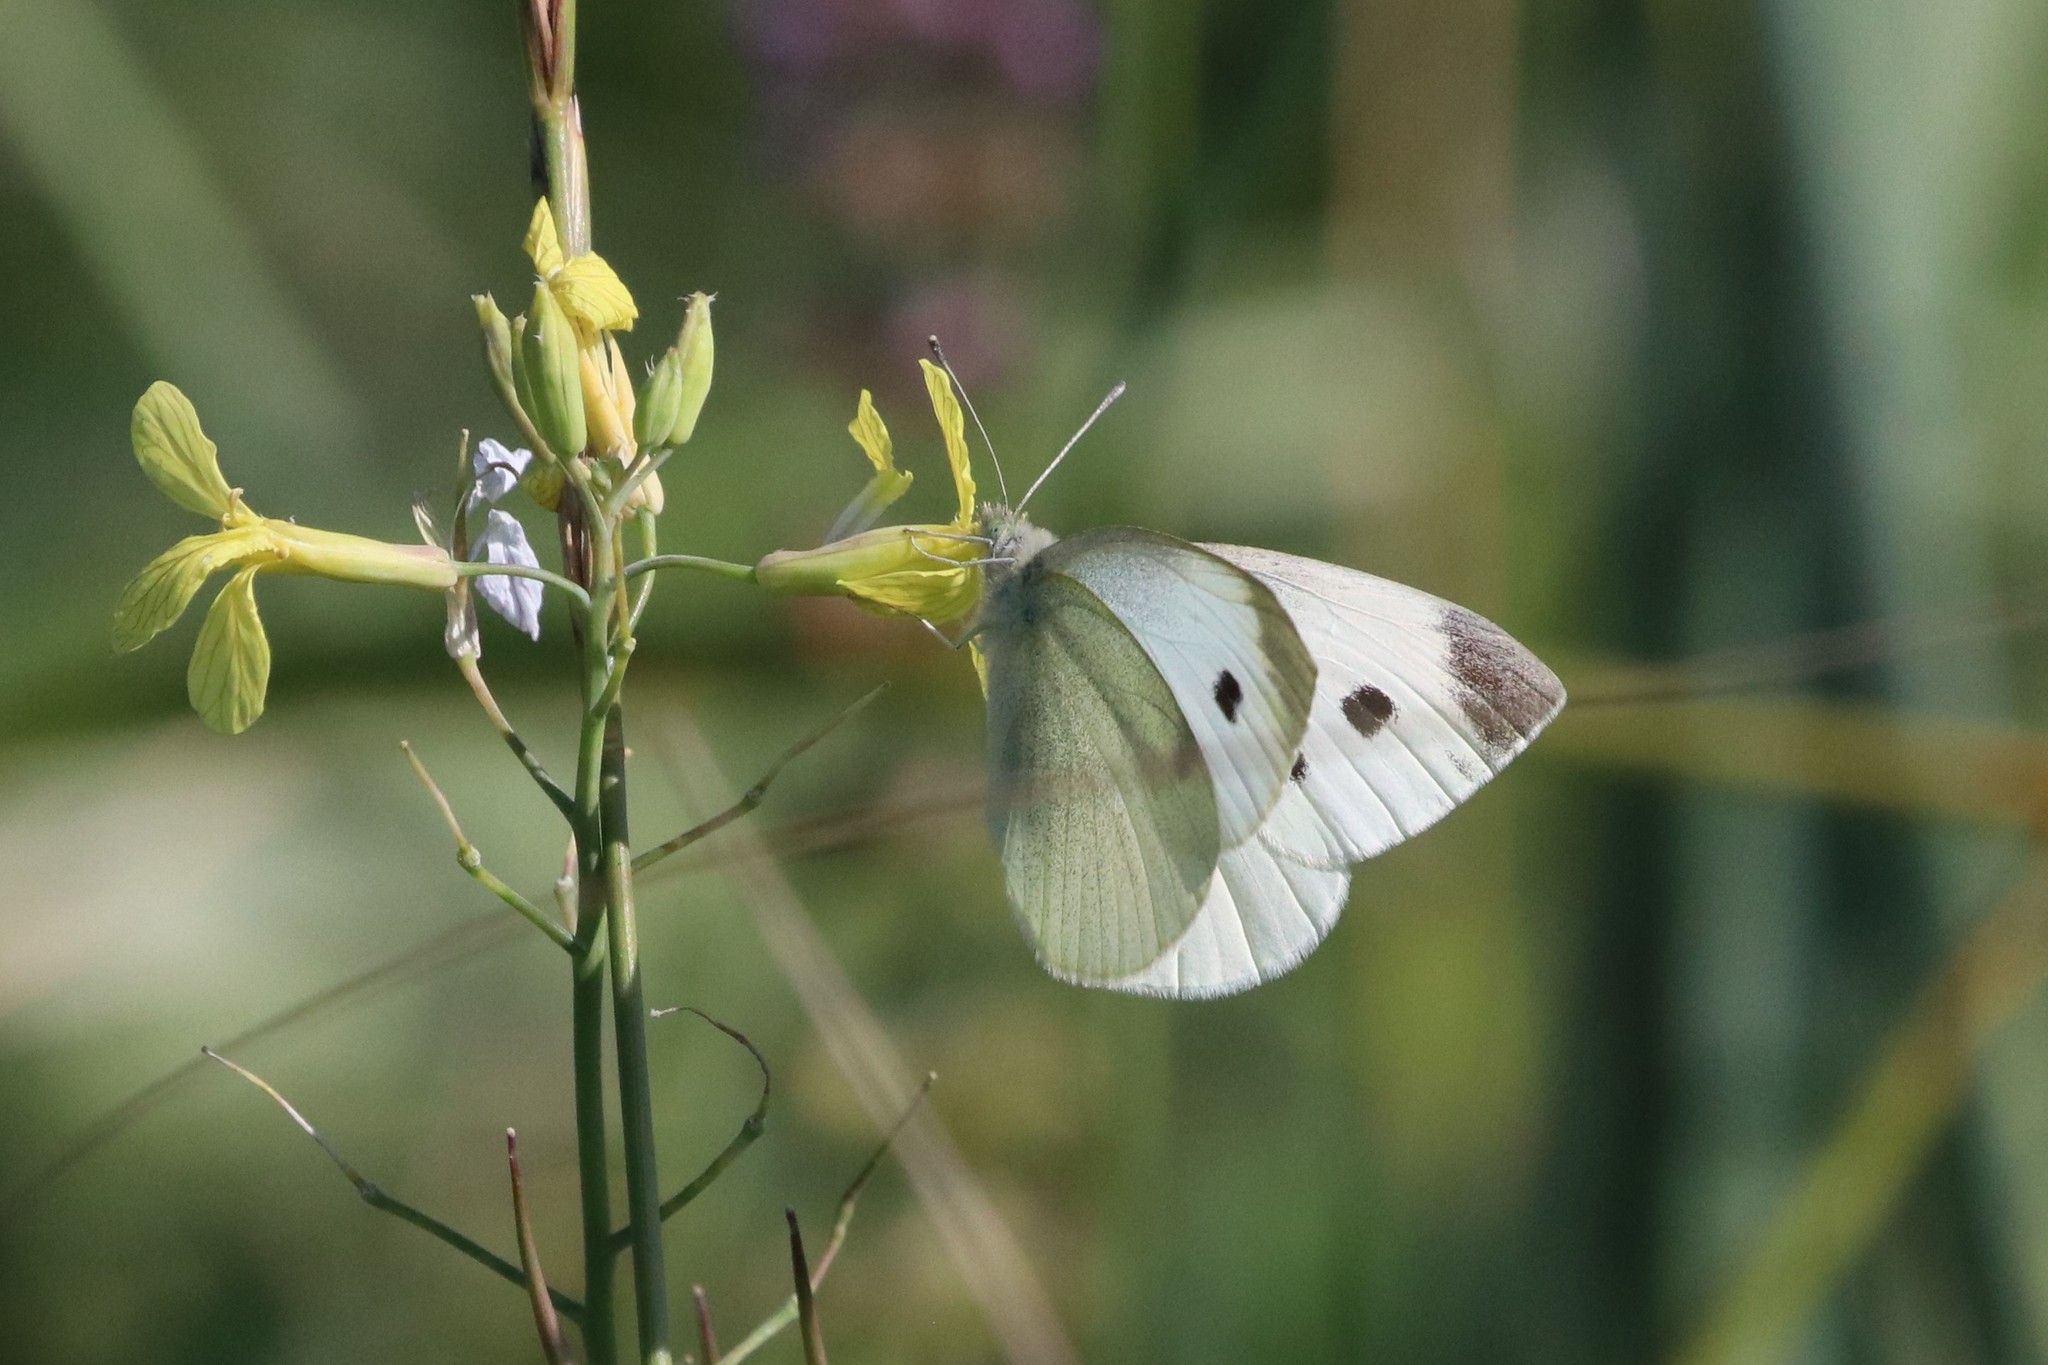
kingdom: Animalia
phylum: Arthropoda
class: Insecta
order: Lepidoptera
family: Pieridae
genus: Pieris
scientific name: Pieris rapae
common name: Small white
